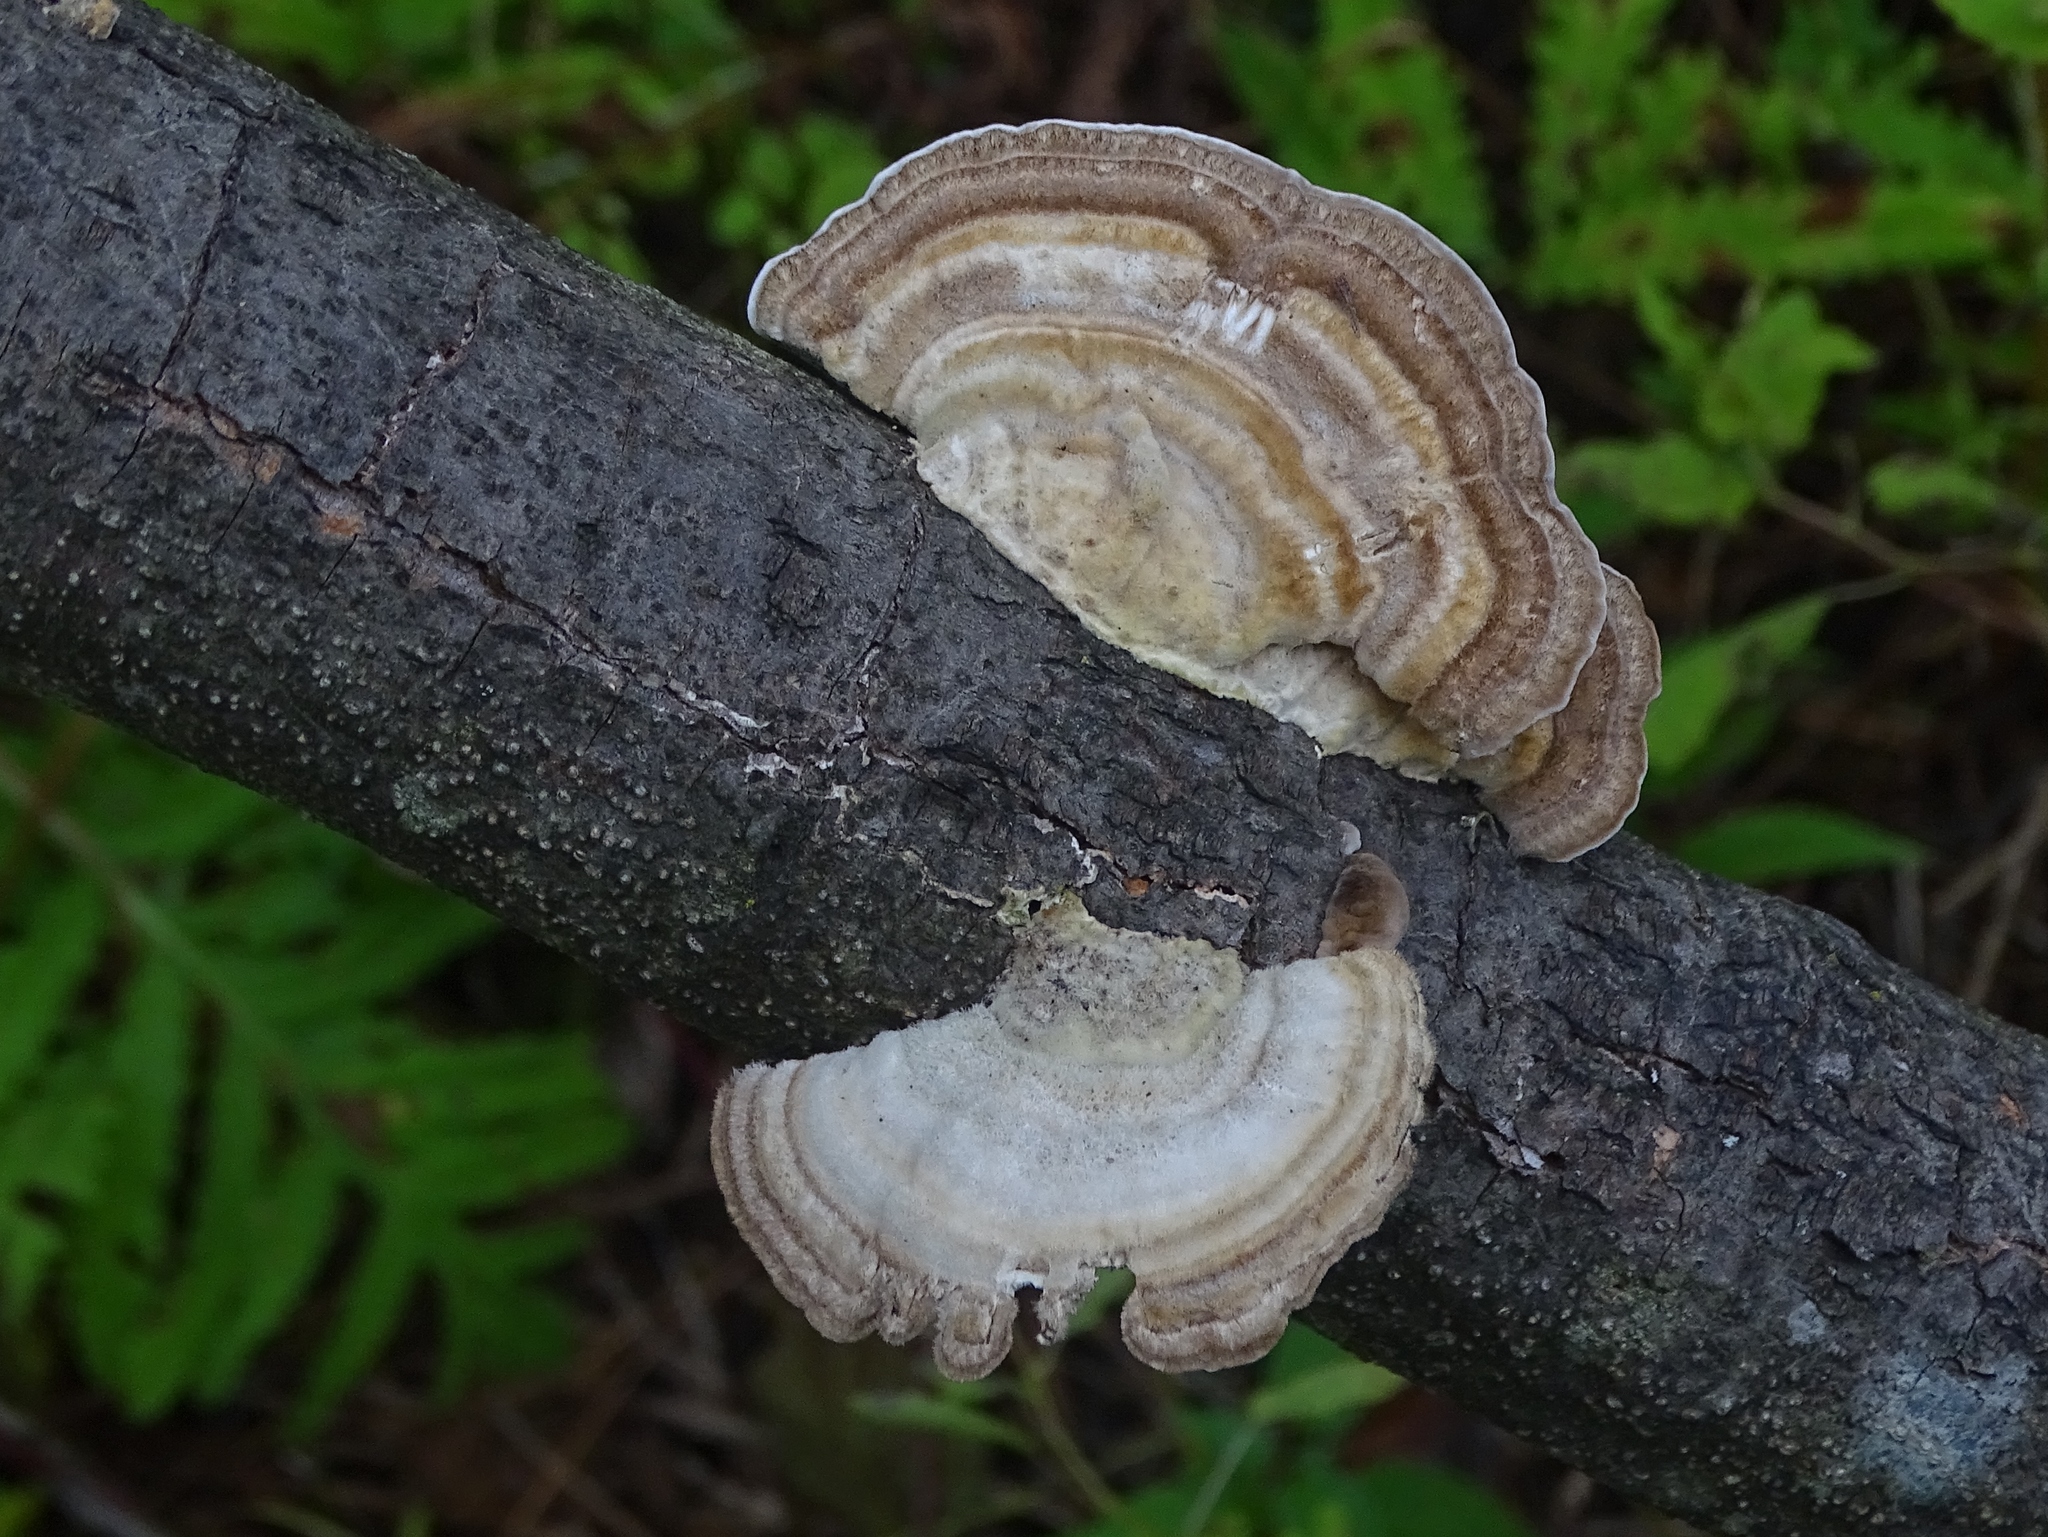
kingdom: Fungi
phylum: Basidiomycota
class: Agaricomycetes
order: Polyporales
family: Polyporaceae
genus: Trametes
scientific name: Trametes hirsuta
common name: Hairy bracket
